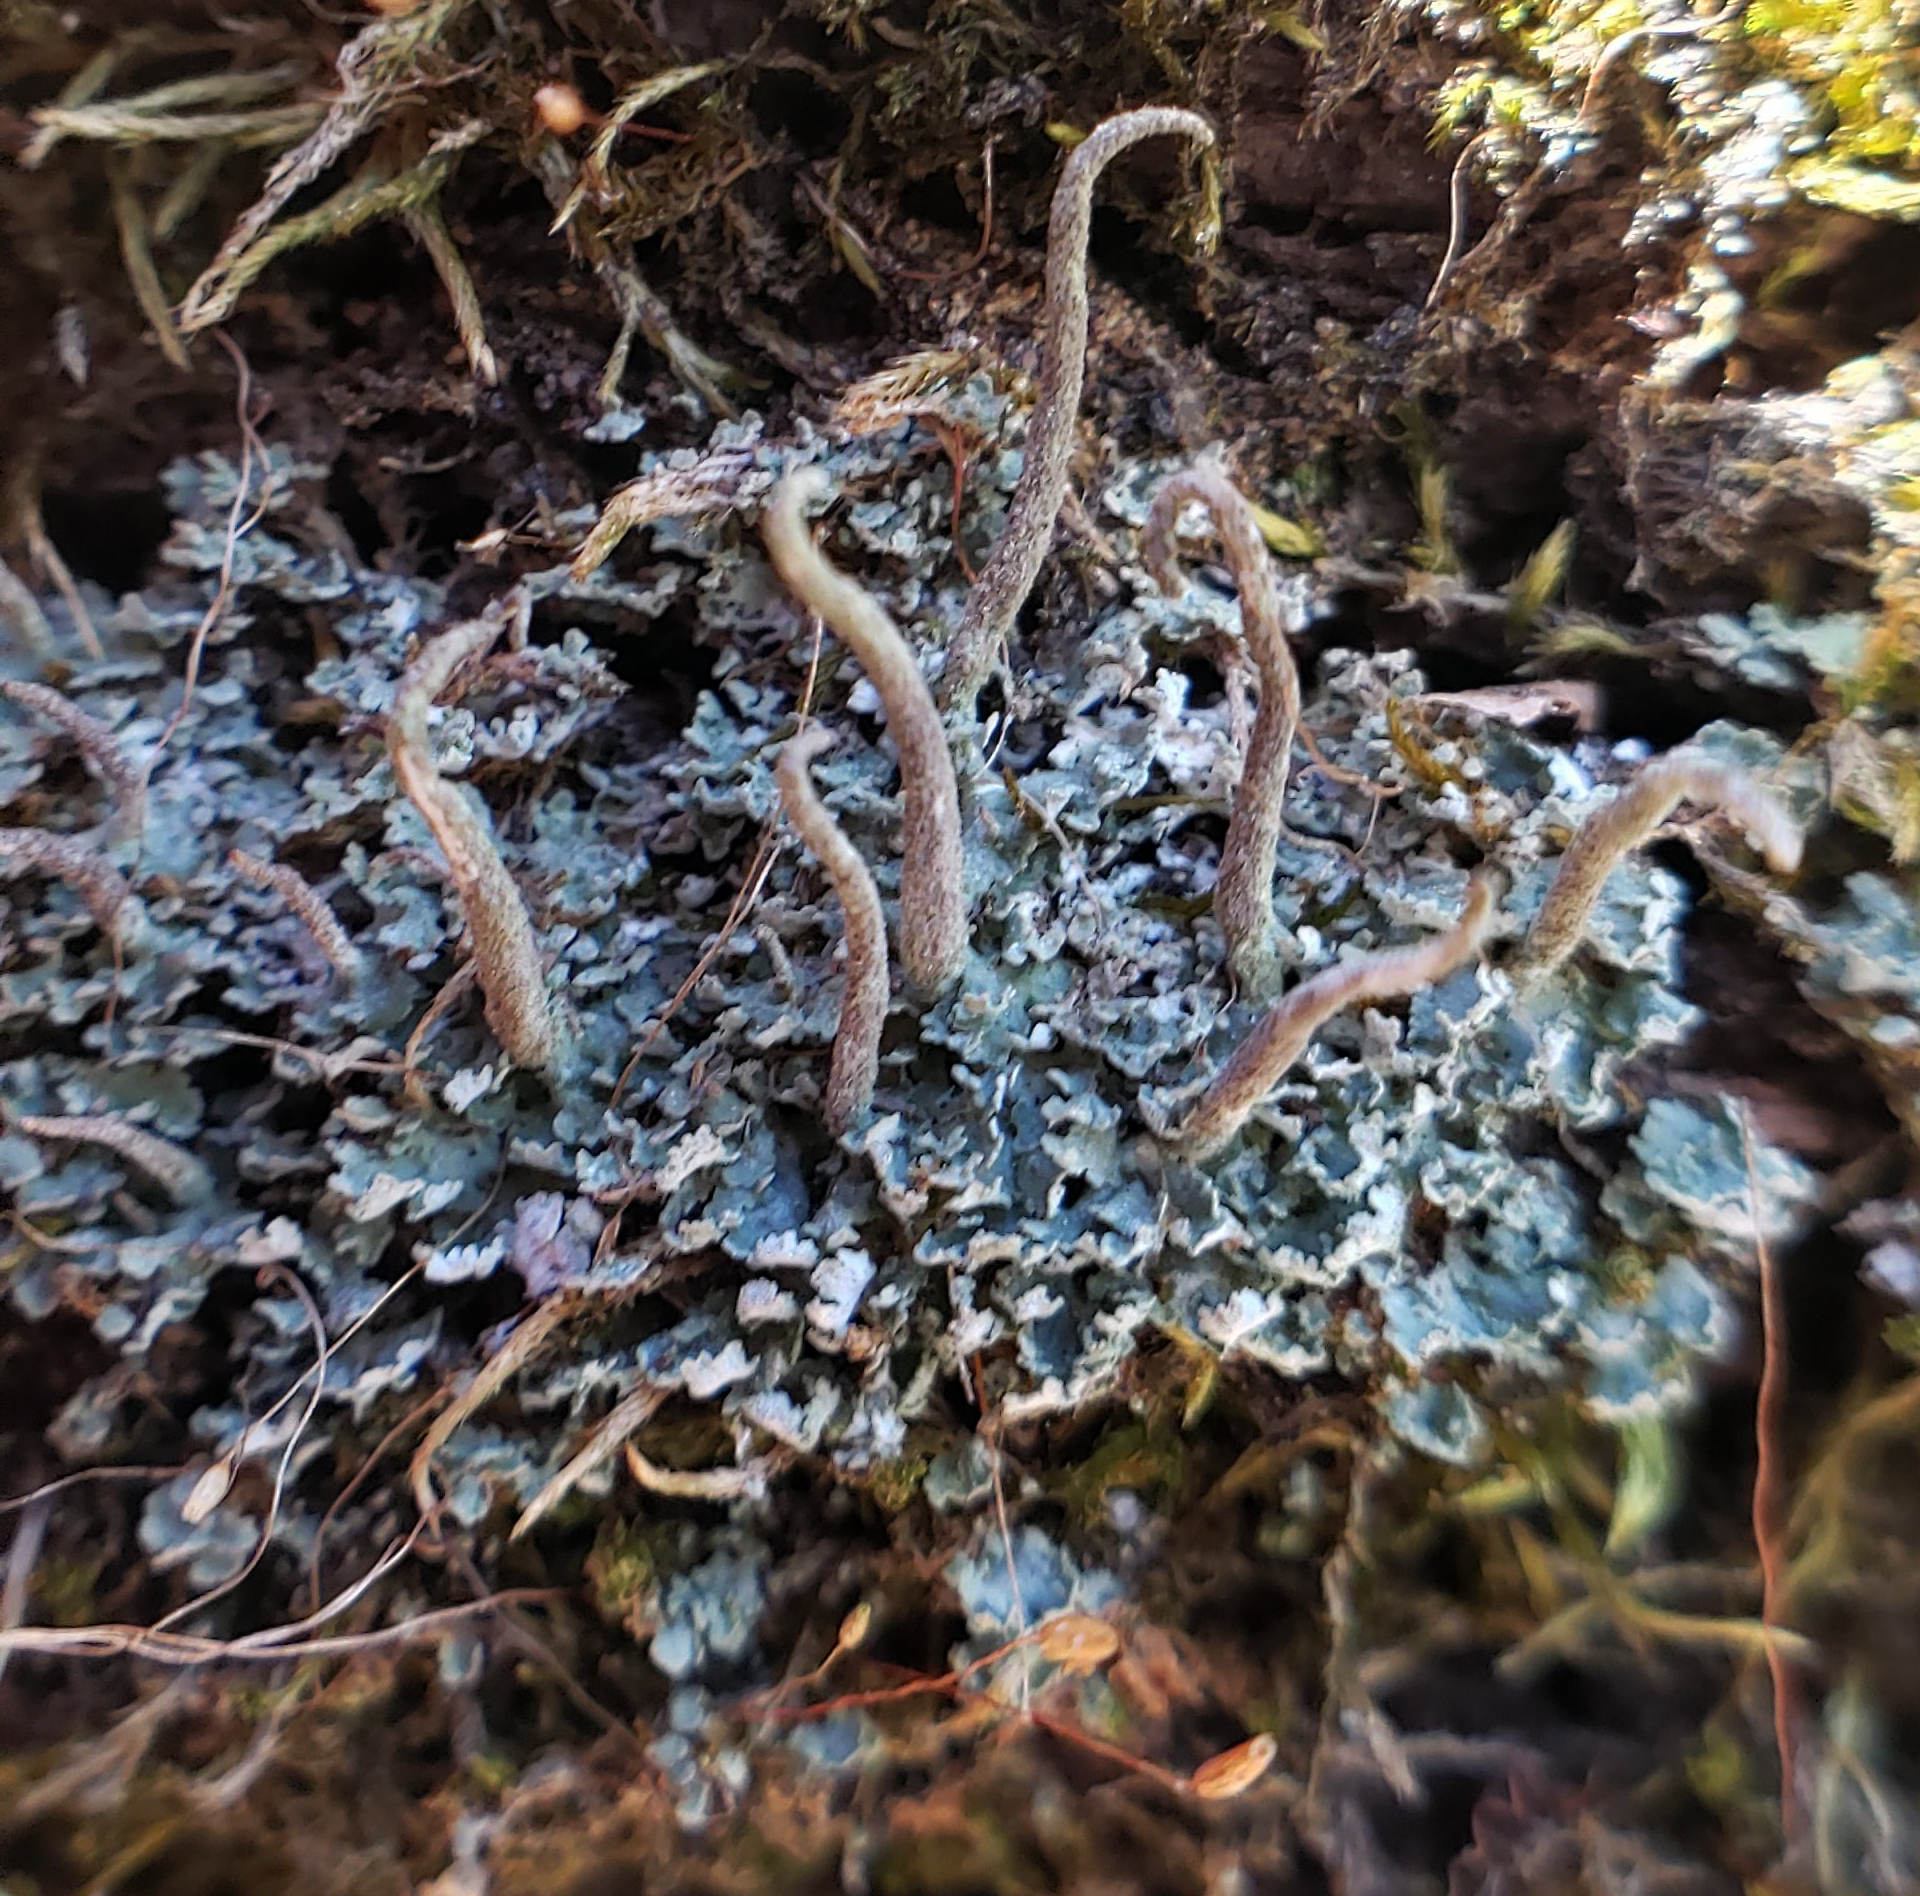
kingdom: Fungi
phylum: Ascomycota
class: Lecanoromycetes
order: Lecanorales
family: Cladoniaceae
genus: Cladonia
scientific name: Cladonia ochrochlora
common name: Smooth-footed powderhorn
